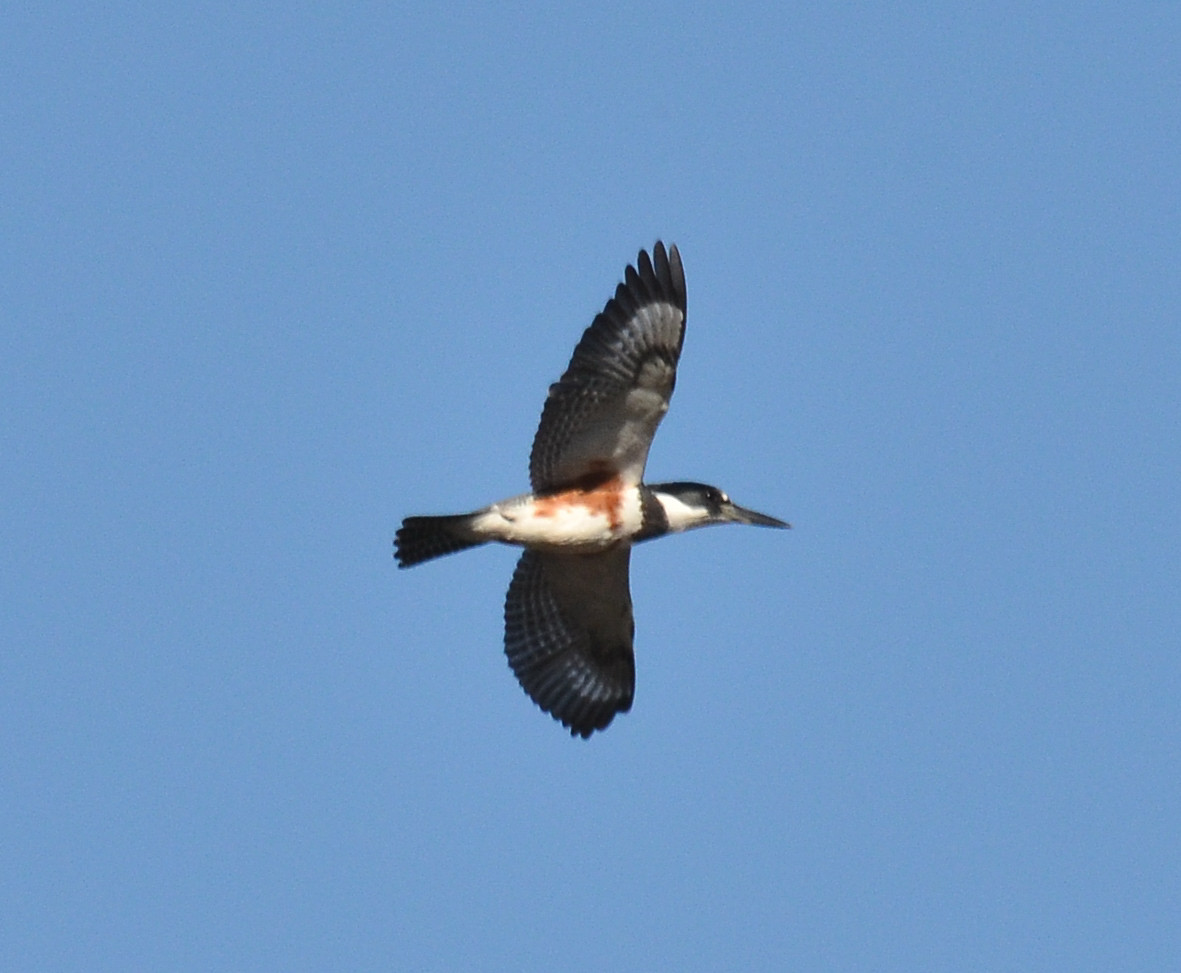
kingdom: Animalia
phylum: Chordata
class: Aves
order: Coraciiformes
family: Alcedinidae
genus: Megaceryle
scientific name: Megaceryle alcyon
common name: Belted kingfisher
